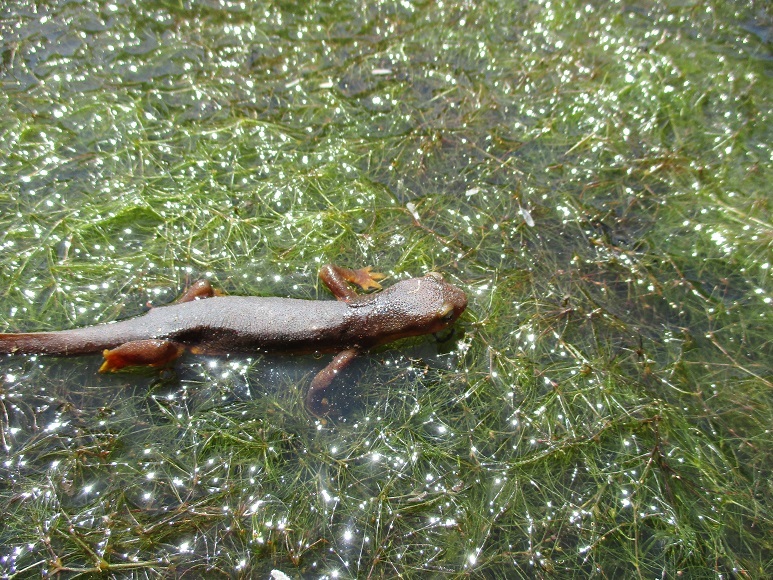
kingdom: Animalia
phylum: Chordata
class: Amphibia
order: Caudata
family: Salamandridae
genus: Taricha
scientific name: Taricha torosa
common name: California newt
